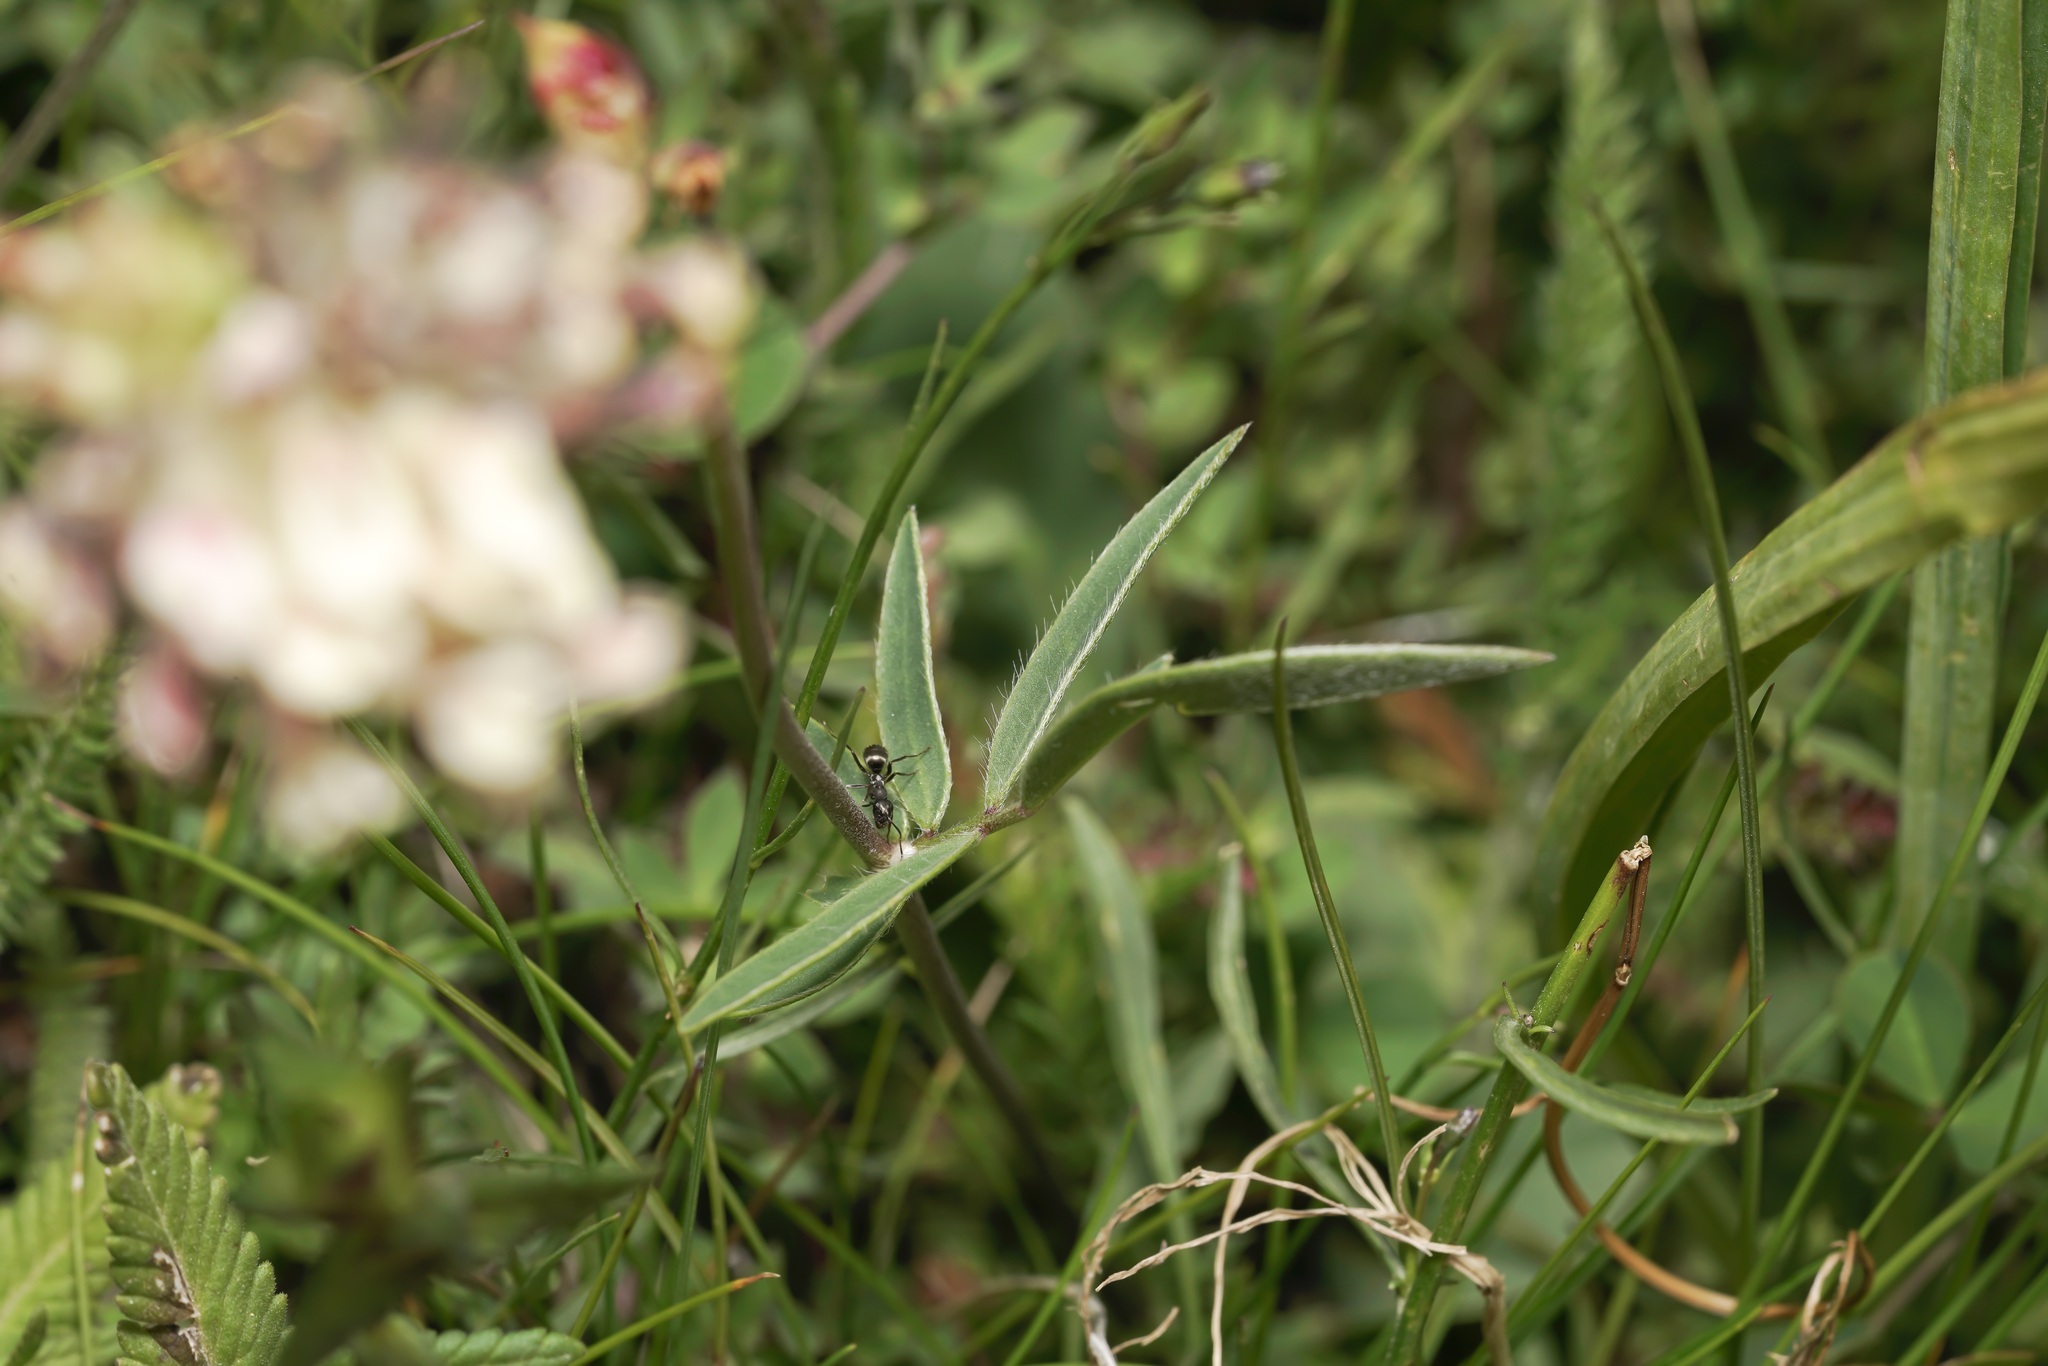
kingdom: Plantae
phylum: Tracheophyta
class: Magnoliopsida
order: Fabales
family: Fabaceae
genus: Anthyllis
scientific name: Anthyllis vulneraria
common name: Kidney vetch
